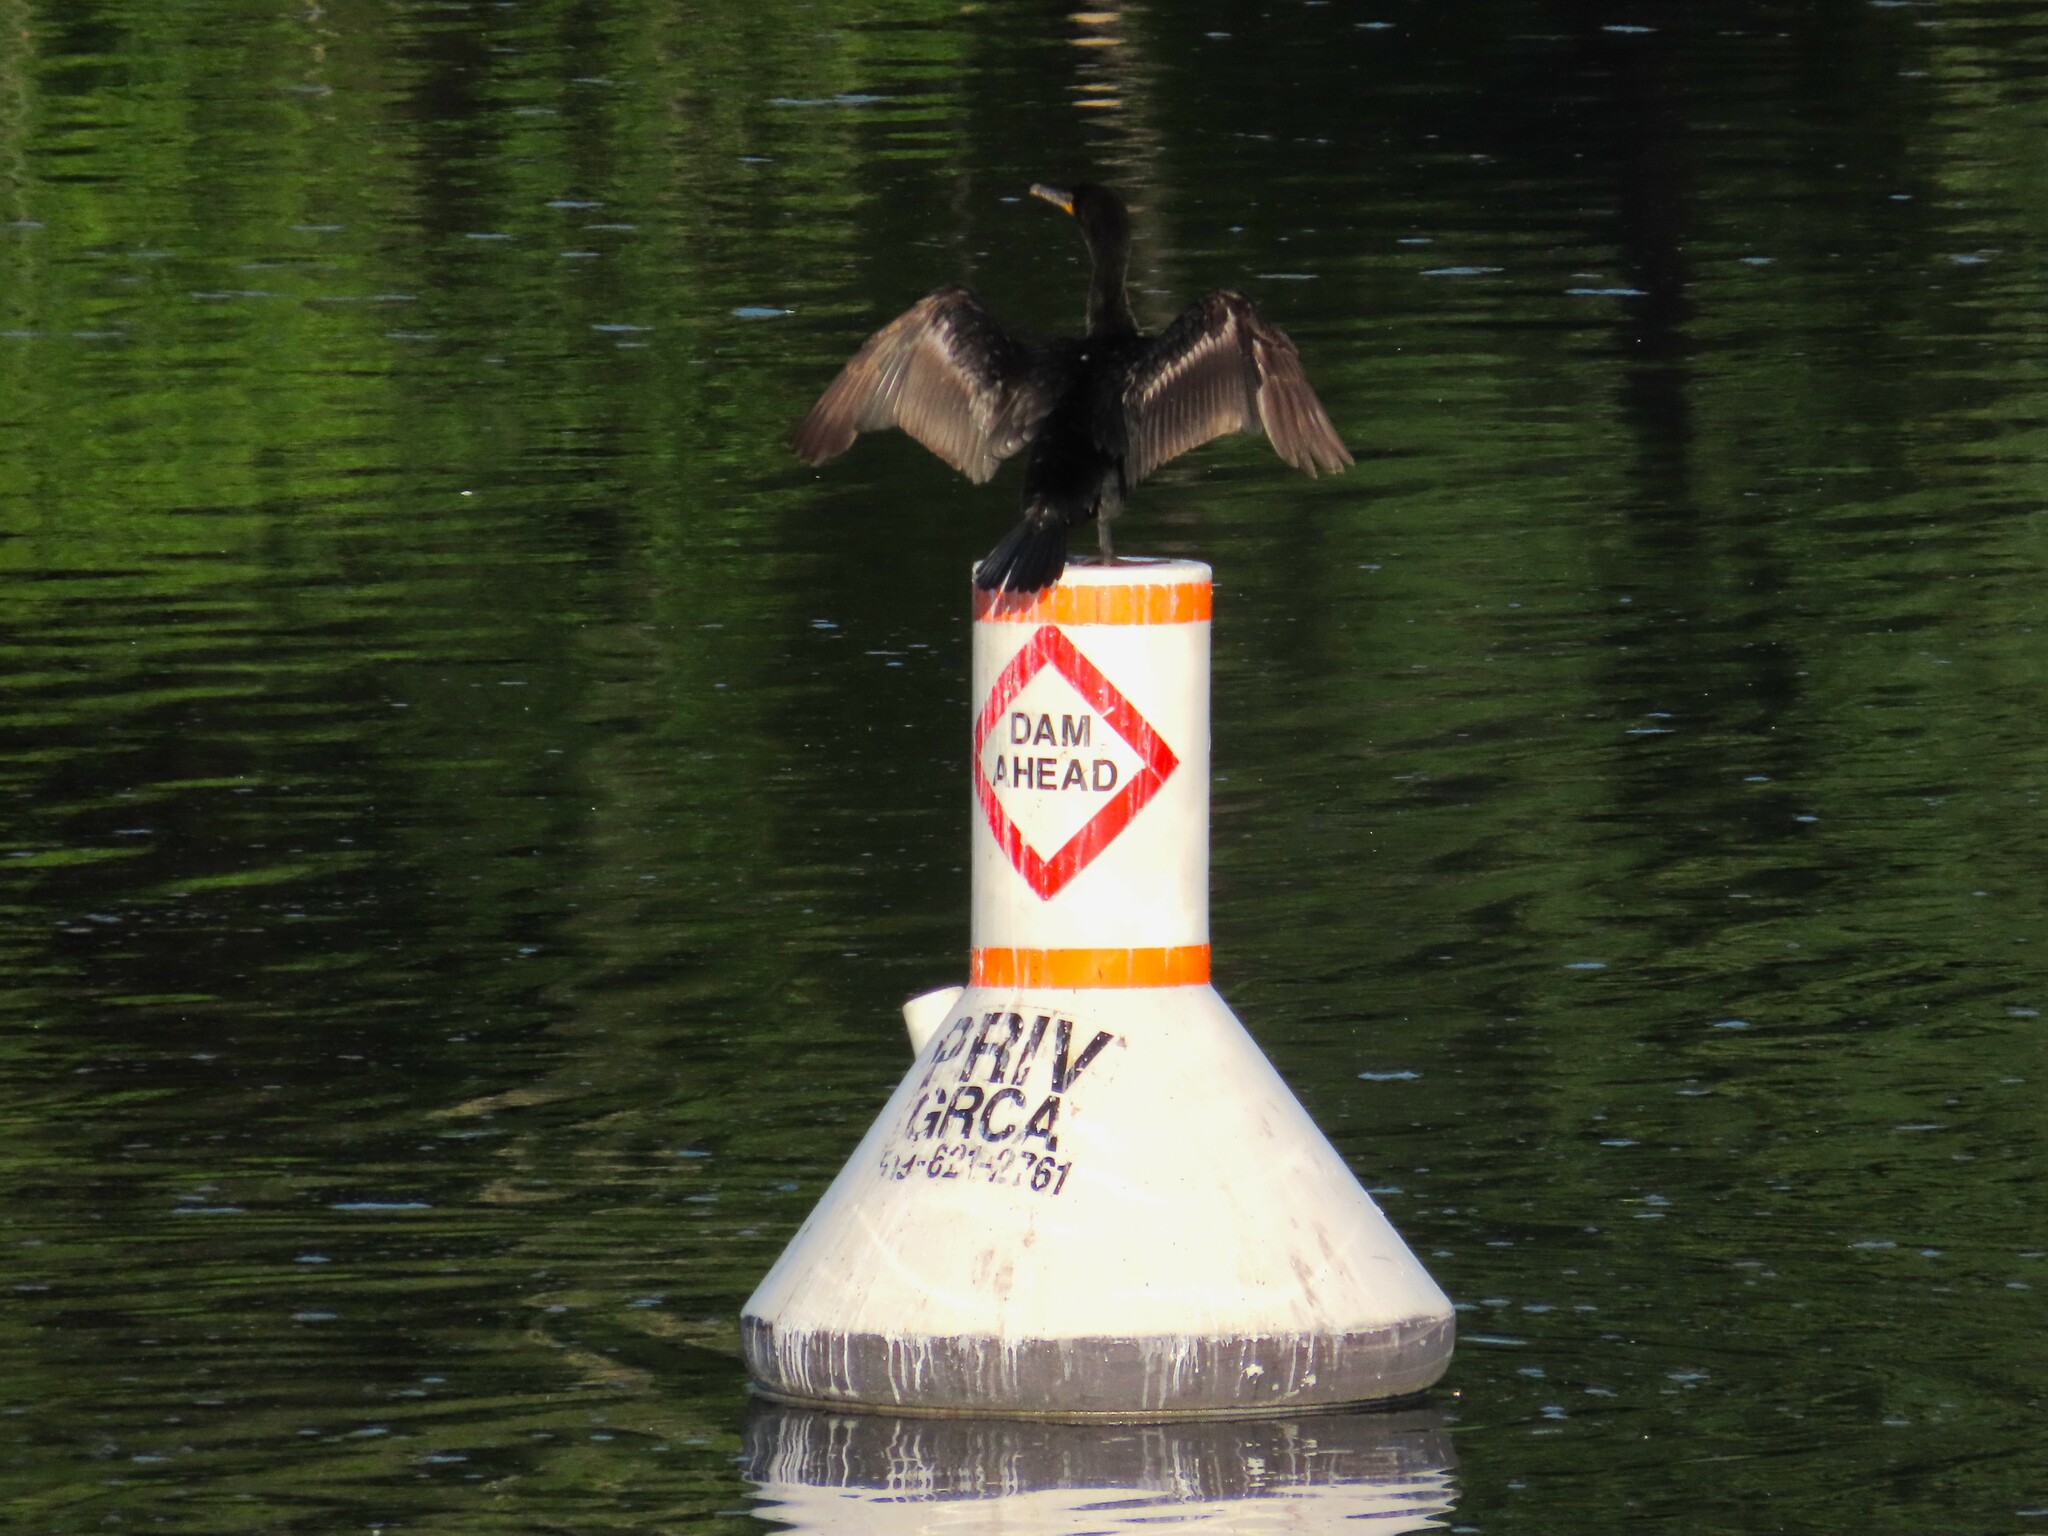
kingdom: Animalia
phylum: Chordata
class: Aves
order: Suliformes
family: Phalacrocoracidae
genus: Phalacrocorax
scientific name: Phalacrocorax auritus
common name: Double-crested cormorant
